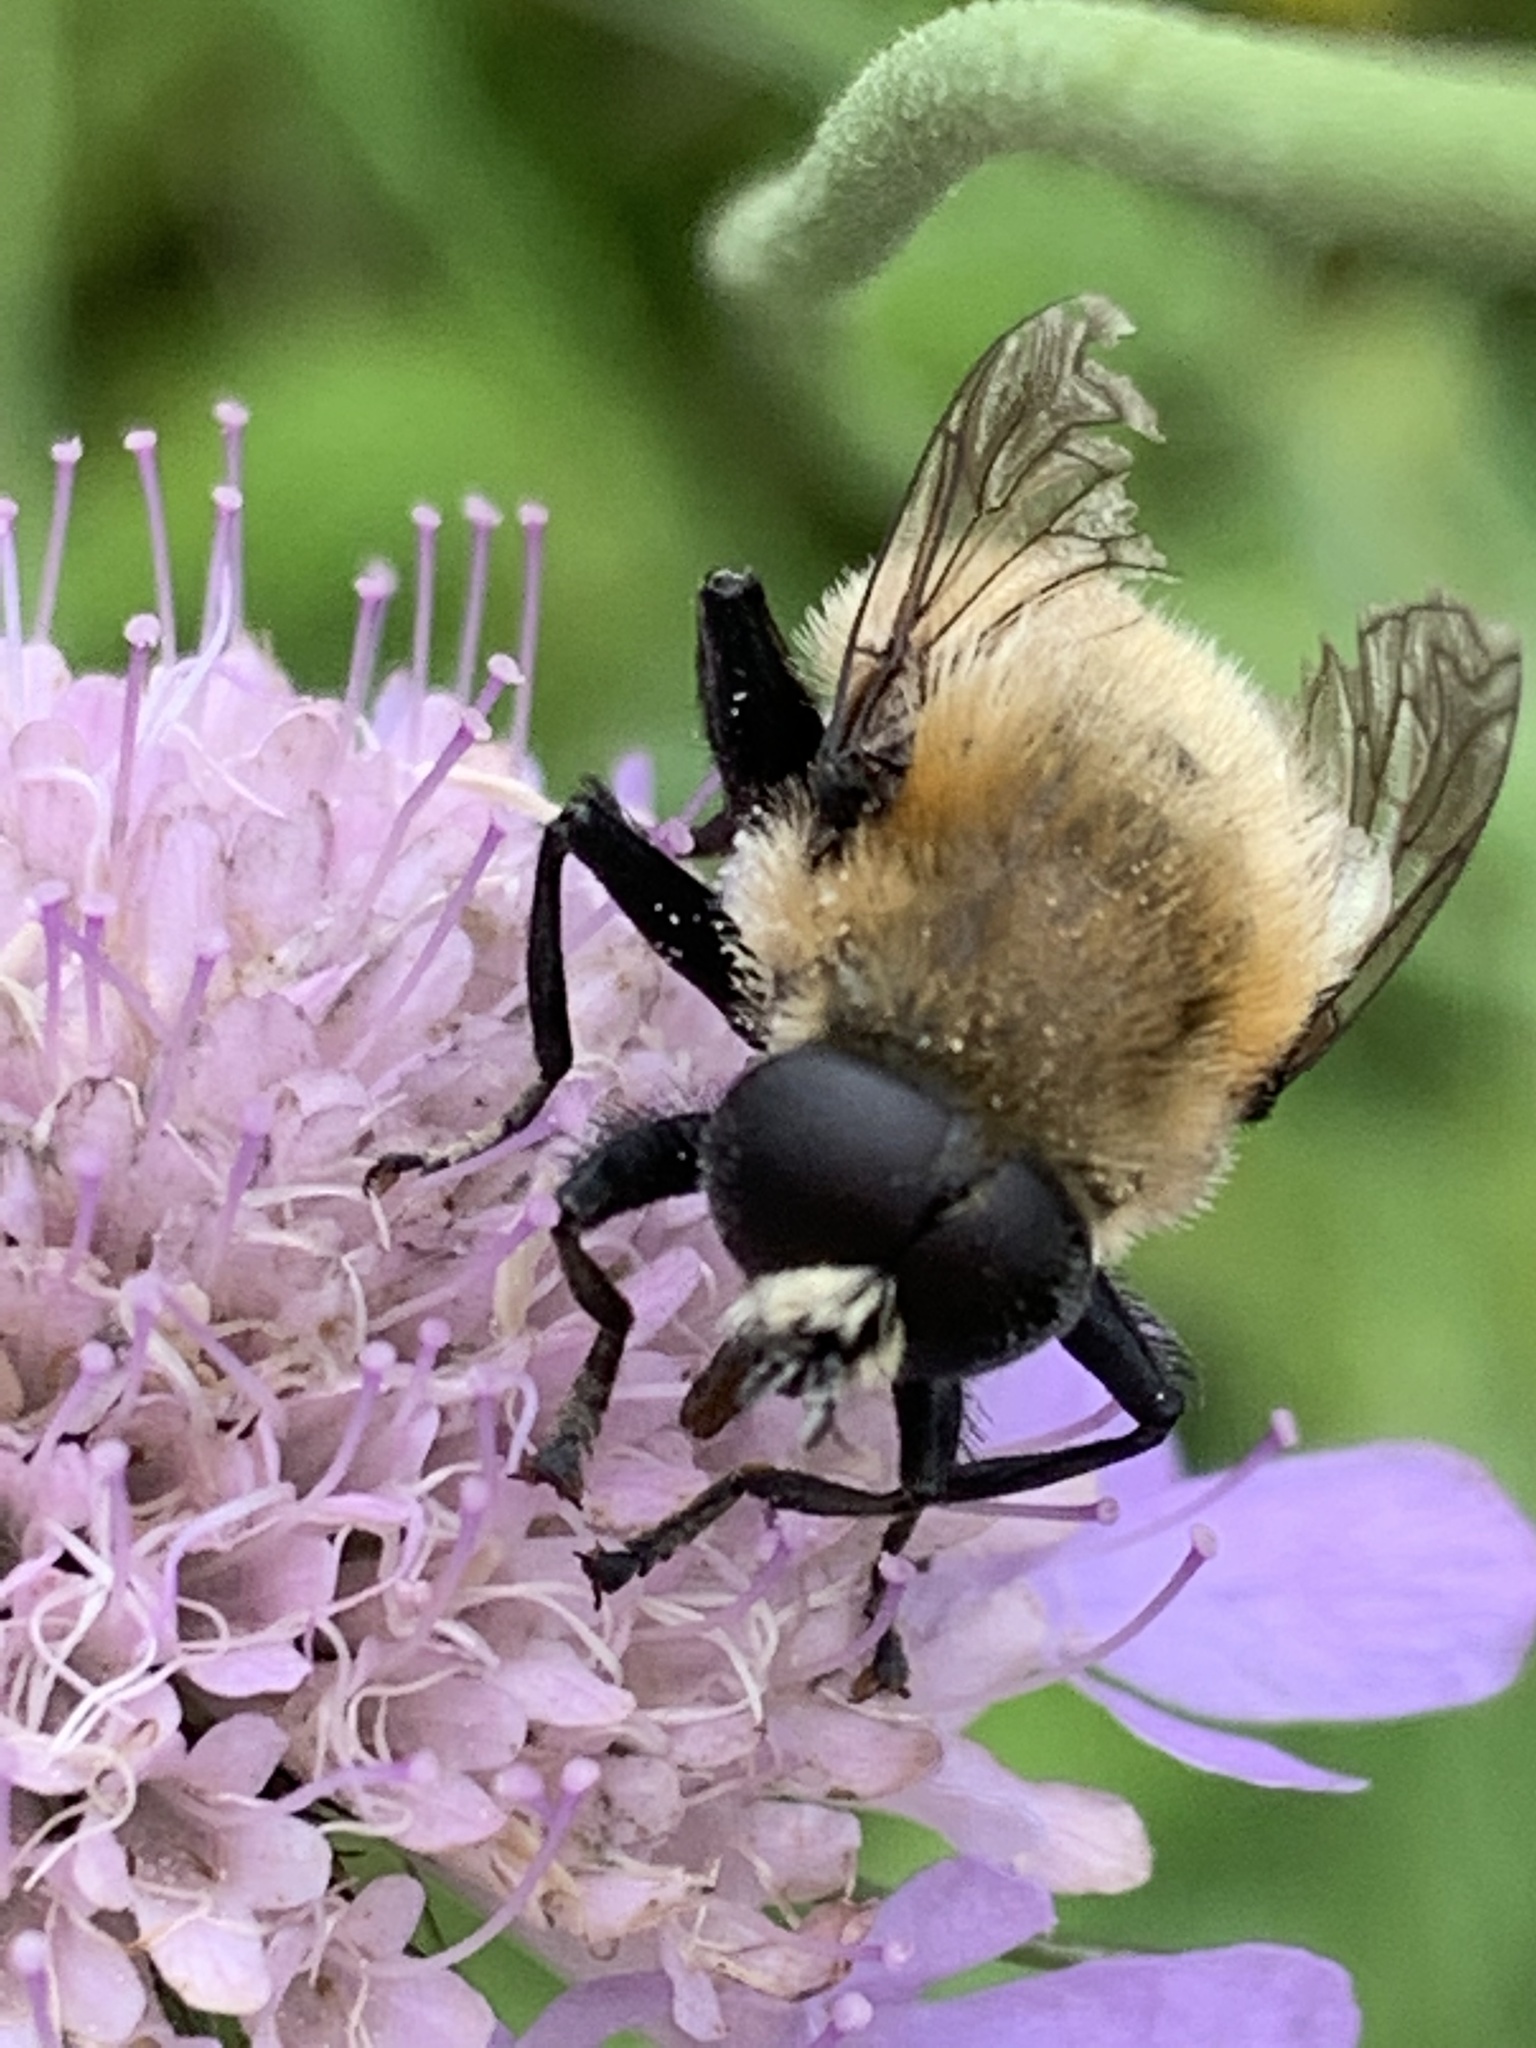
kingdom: Animalia
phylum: Arthropoda
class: Insecta
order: Diptera
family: Syrphidae
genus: Merodon
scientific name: Merodon equestris
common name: Greater bulb-fly
